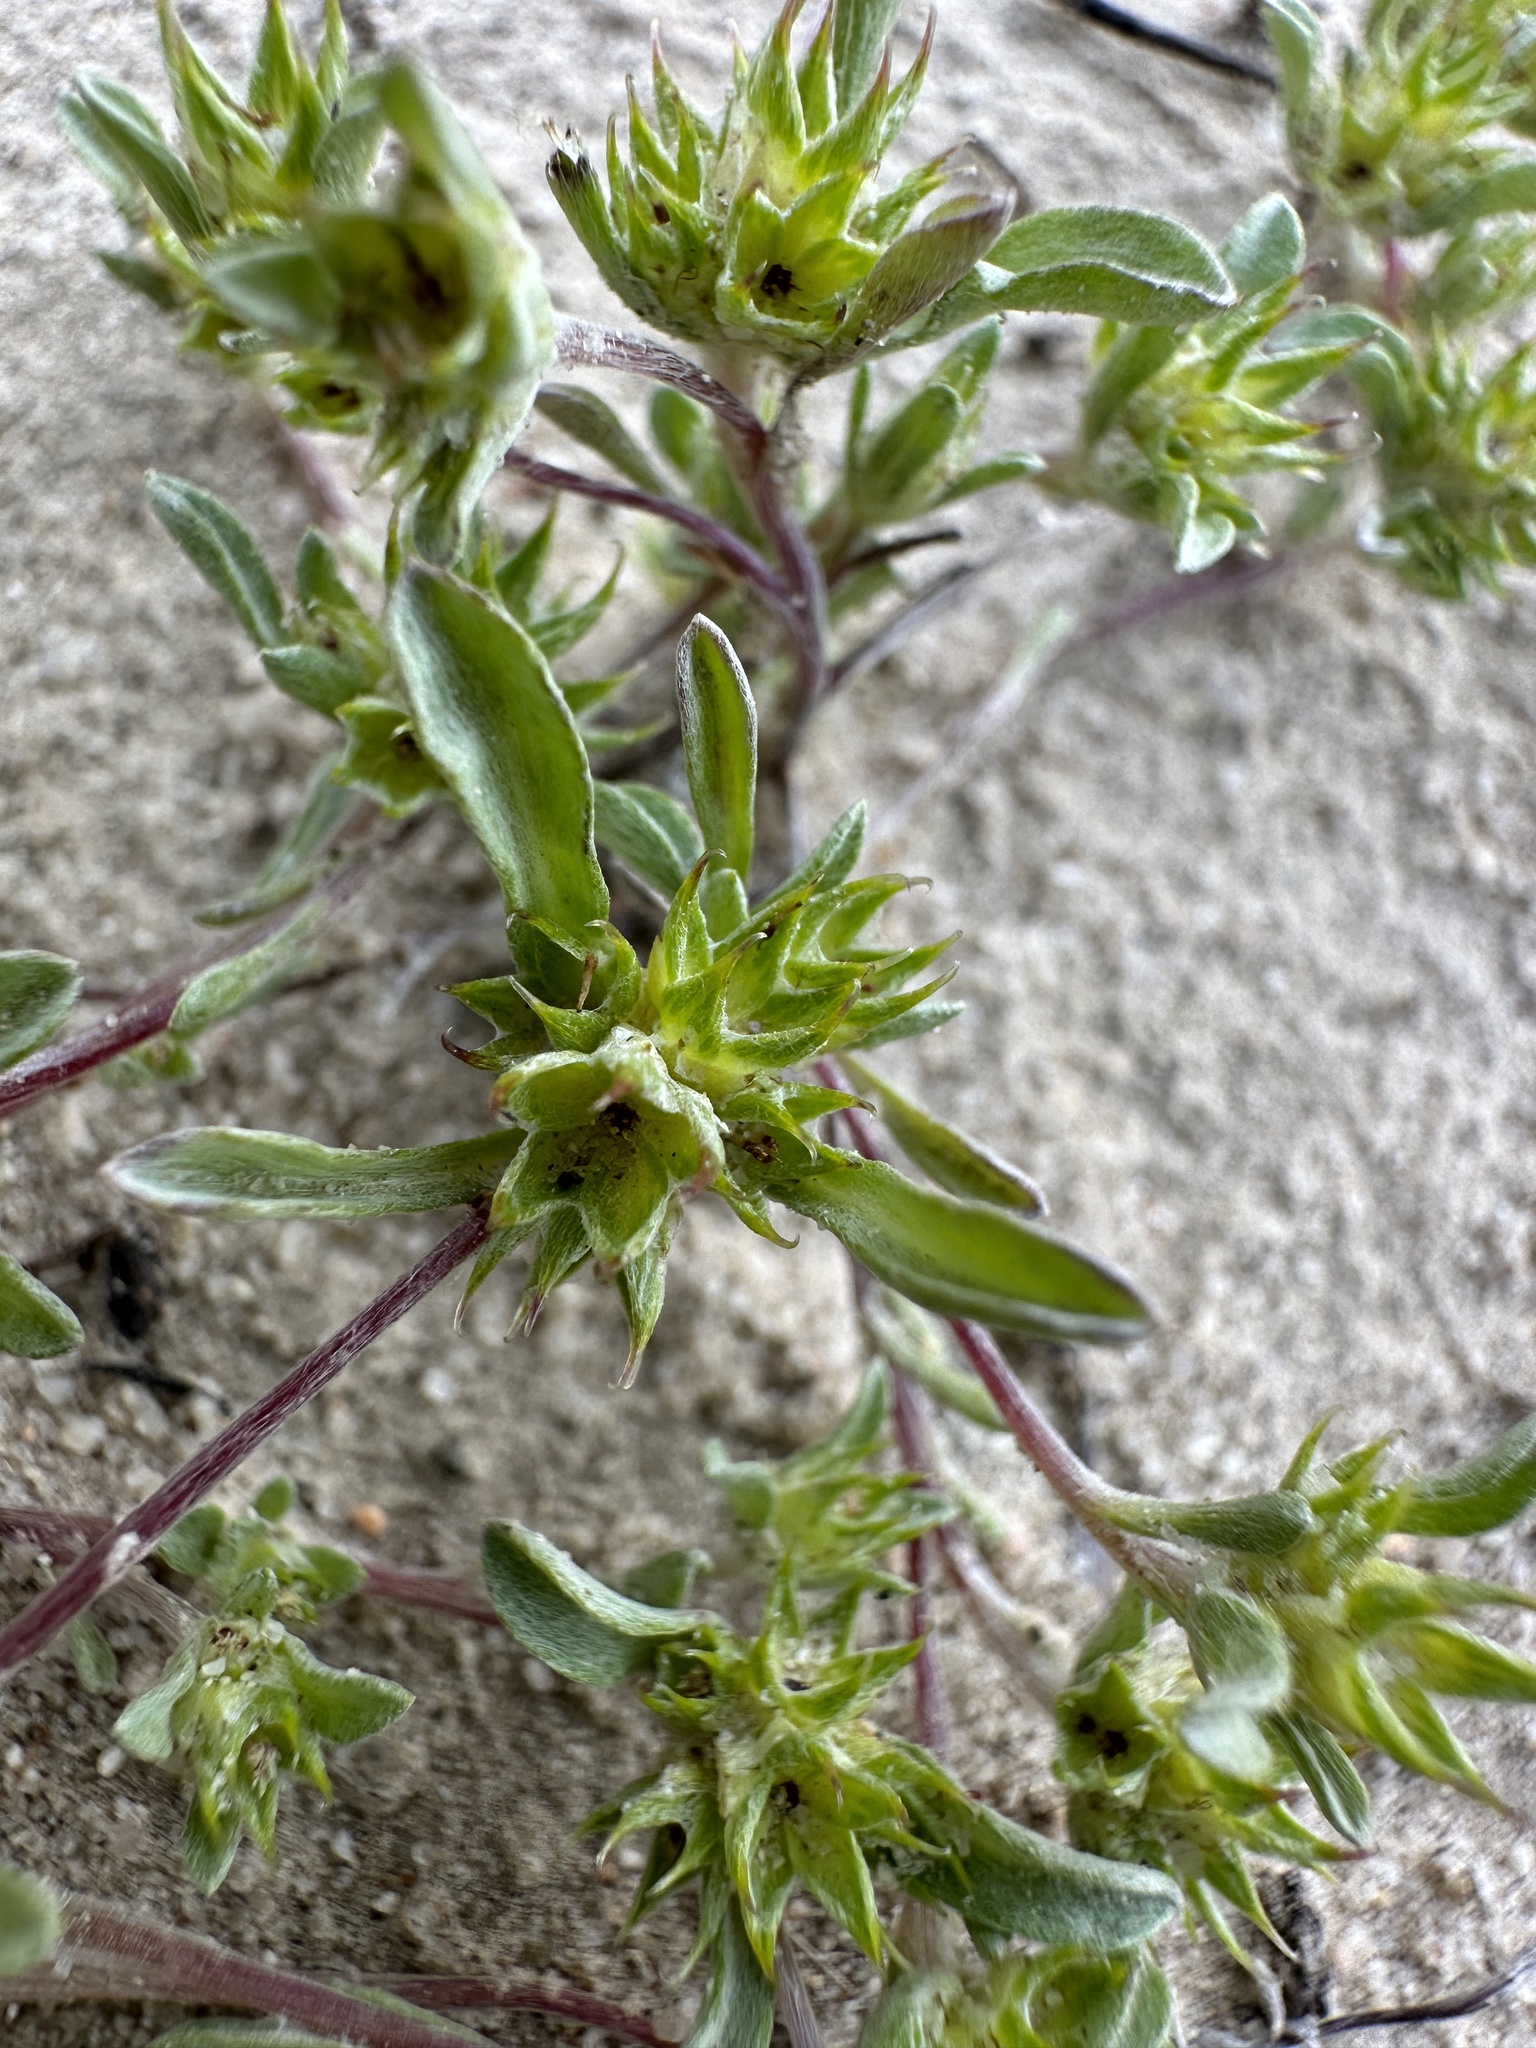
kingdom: Plantae
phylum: Tracheophyta
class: Magnoliopsida
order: Asterales
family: Asteraceae
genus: Ancistrocarphus
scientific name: Ancistrocarphus filagineus
